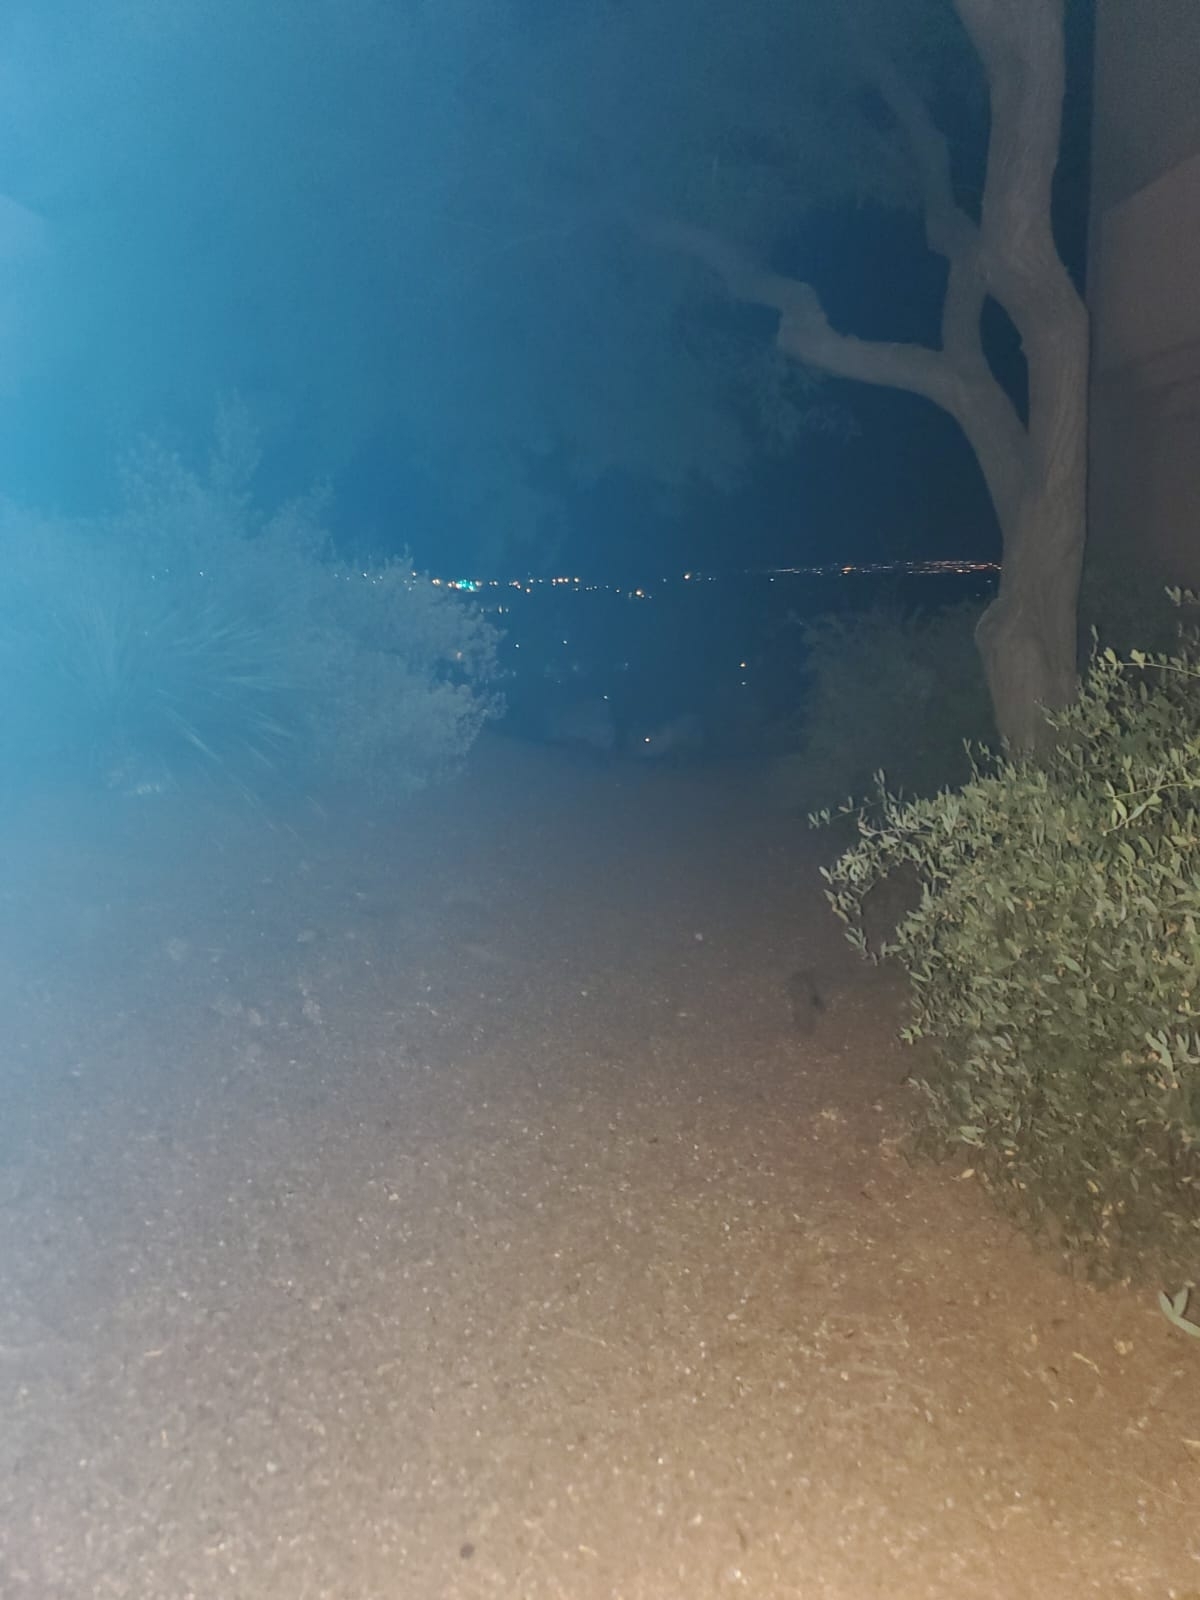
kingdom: Animalia
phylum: Chordata
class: Mammalia
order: Artiodactyla
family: Tayassuidae
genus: Pecari
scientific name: Pecari tajacu
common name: Collared peccary
